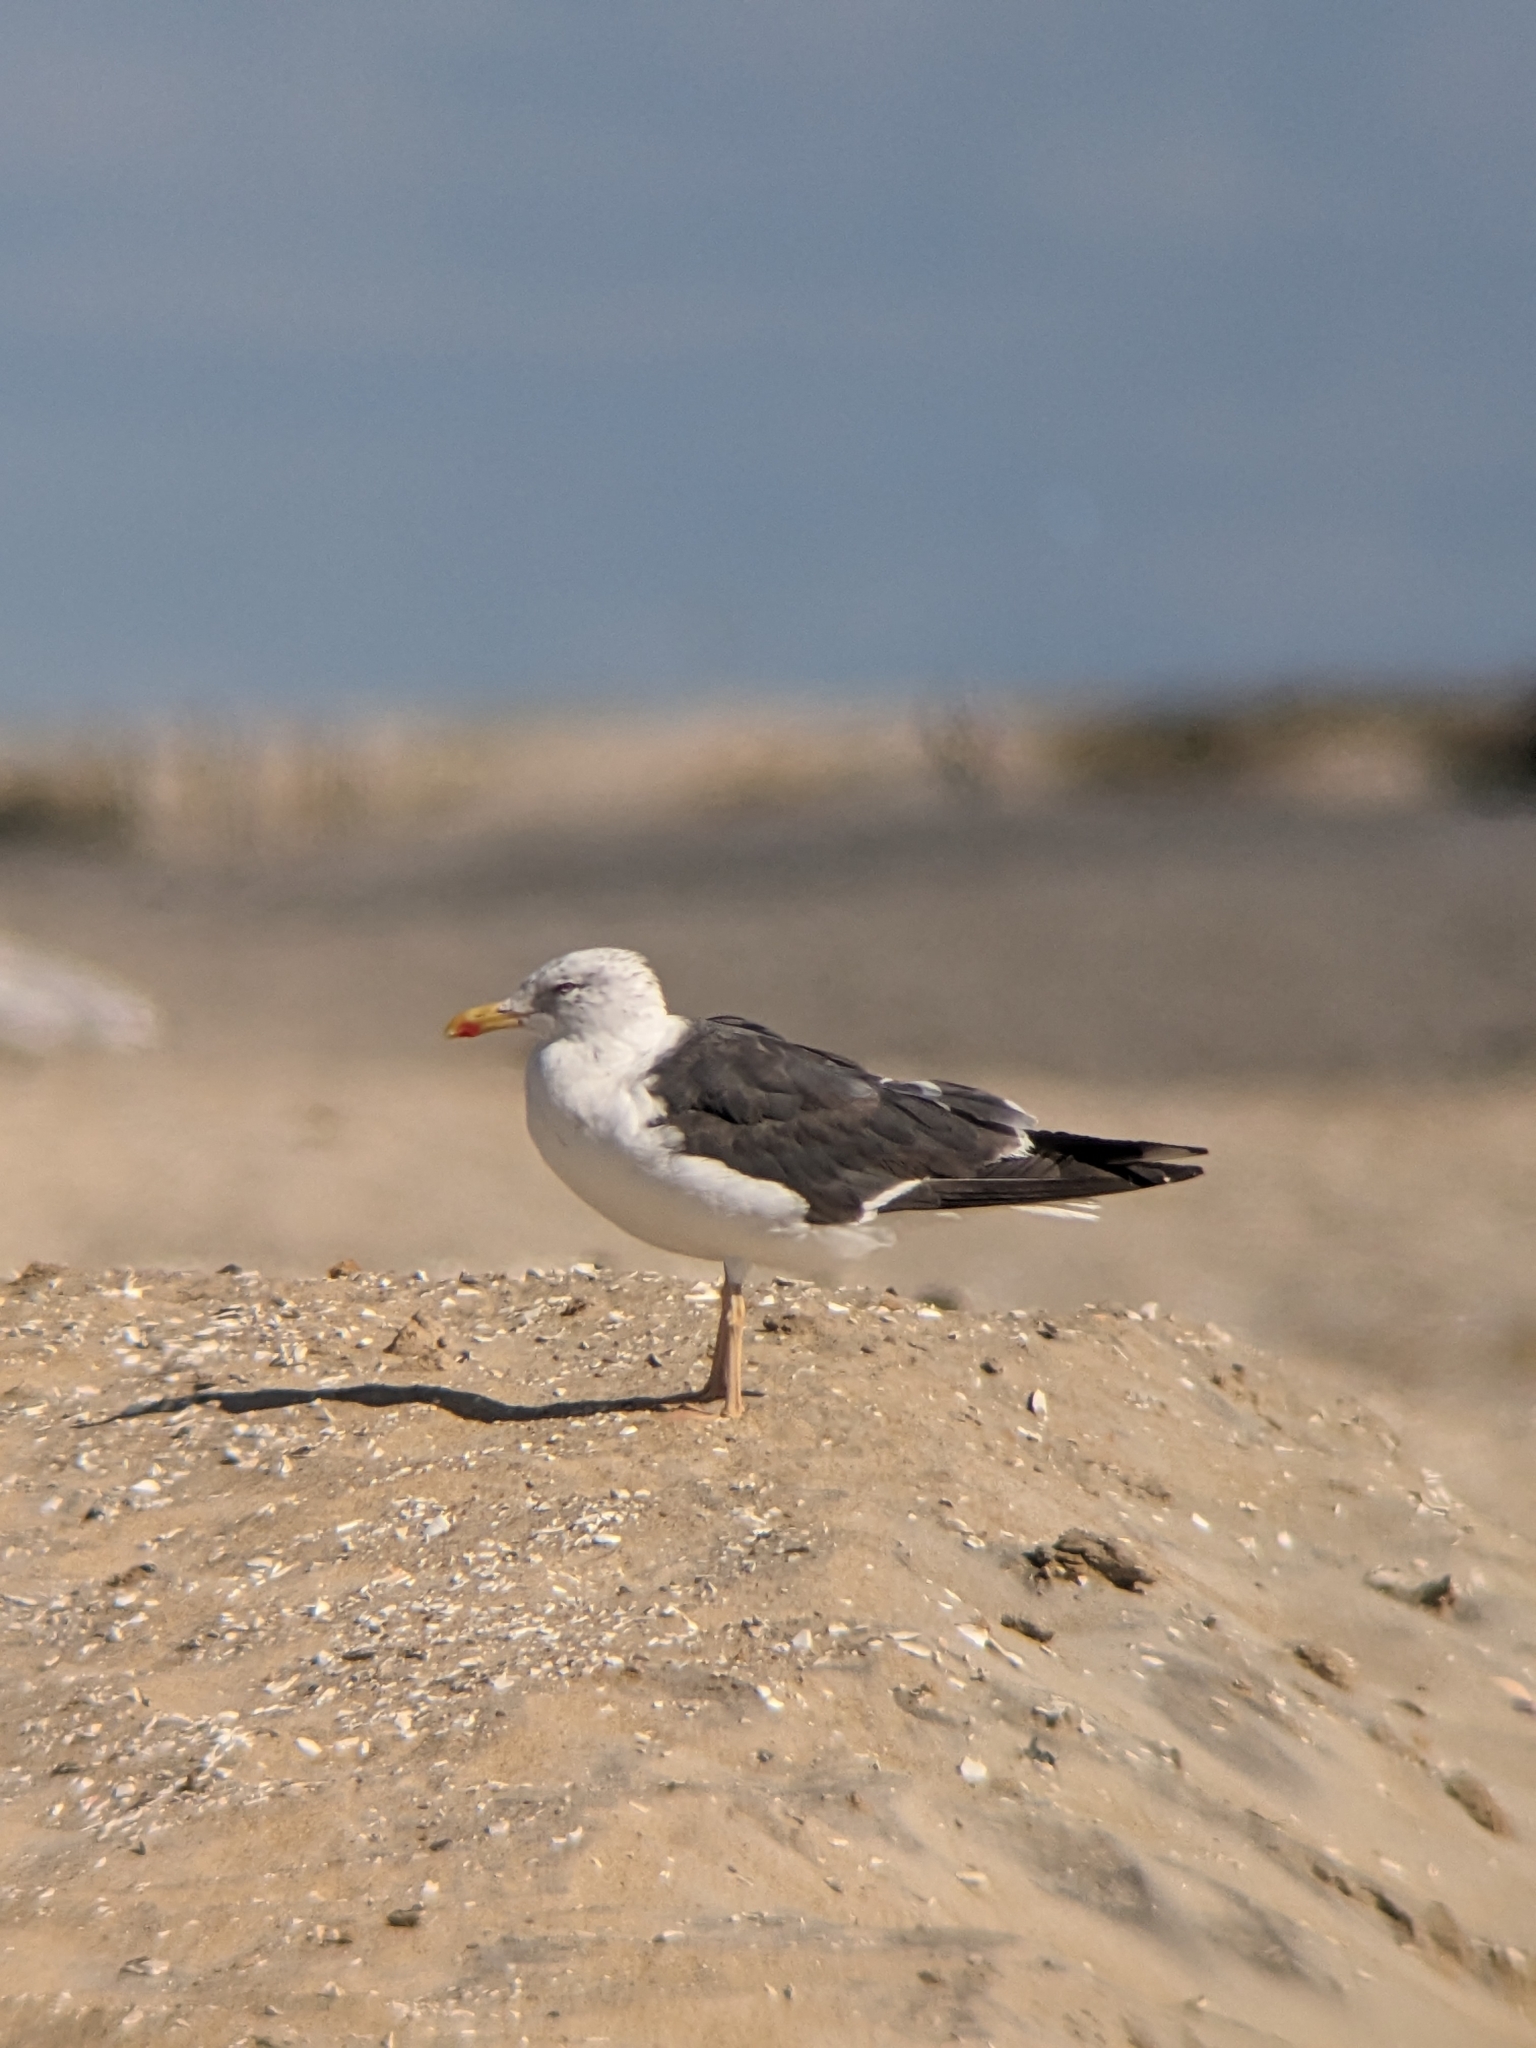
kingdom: Animalia
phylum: Chordata
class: Aves
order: Charadriiformes
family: Laridae
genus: Larus
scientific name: Larus fuscus
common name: Lesser black-backed gull
